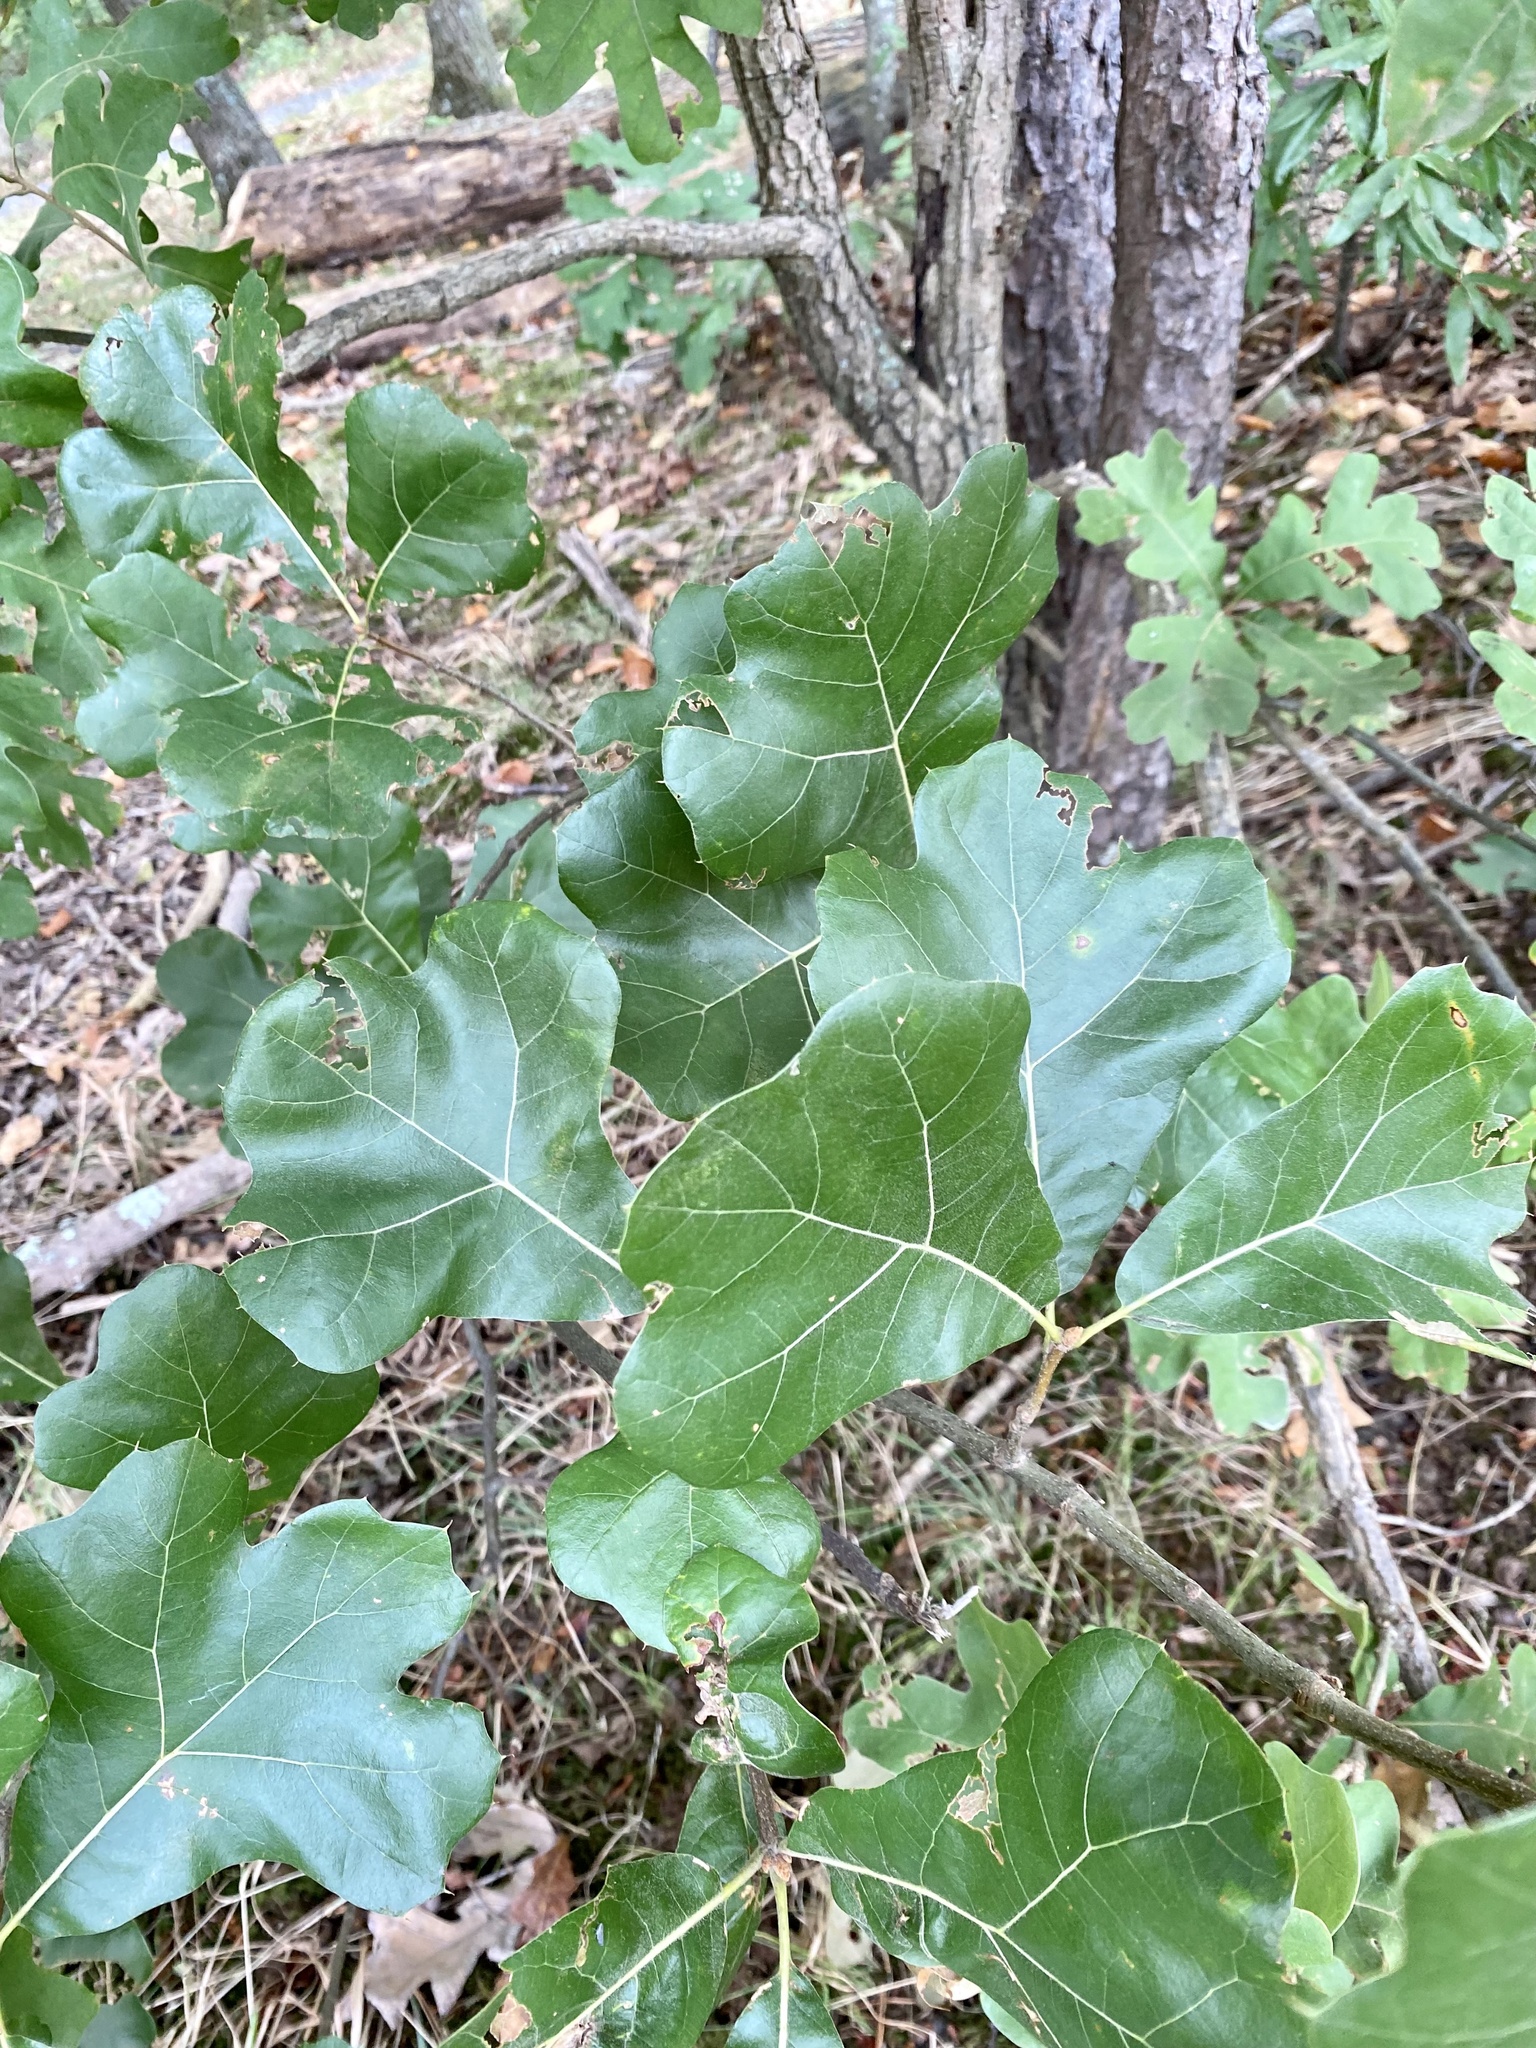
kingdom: Plantae
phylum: Tracheophyta
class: Magnoliopsida
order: Fagales
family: Fagaceae
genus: Quercus
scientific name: Quercus marilandica
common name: Blackjack oak
